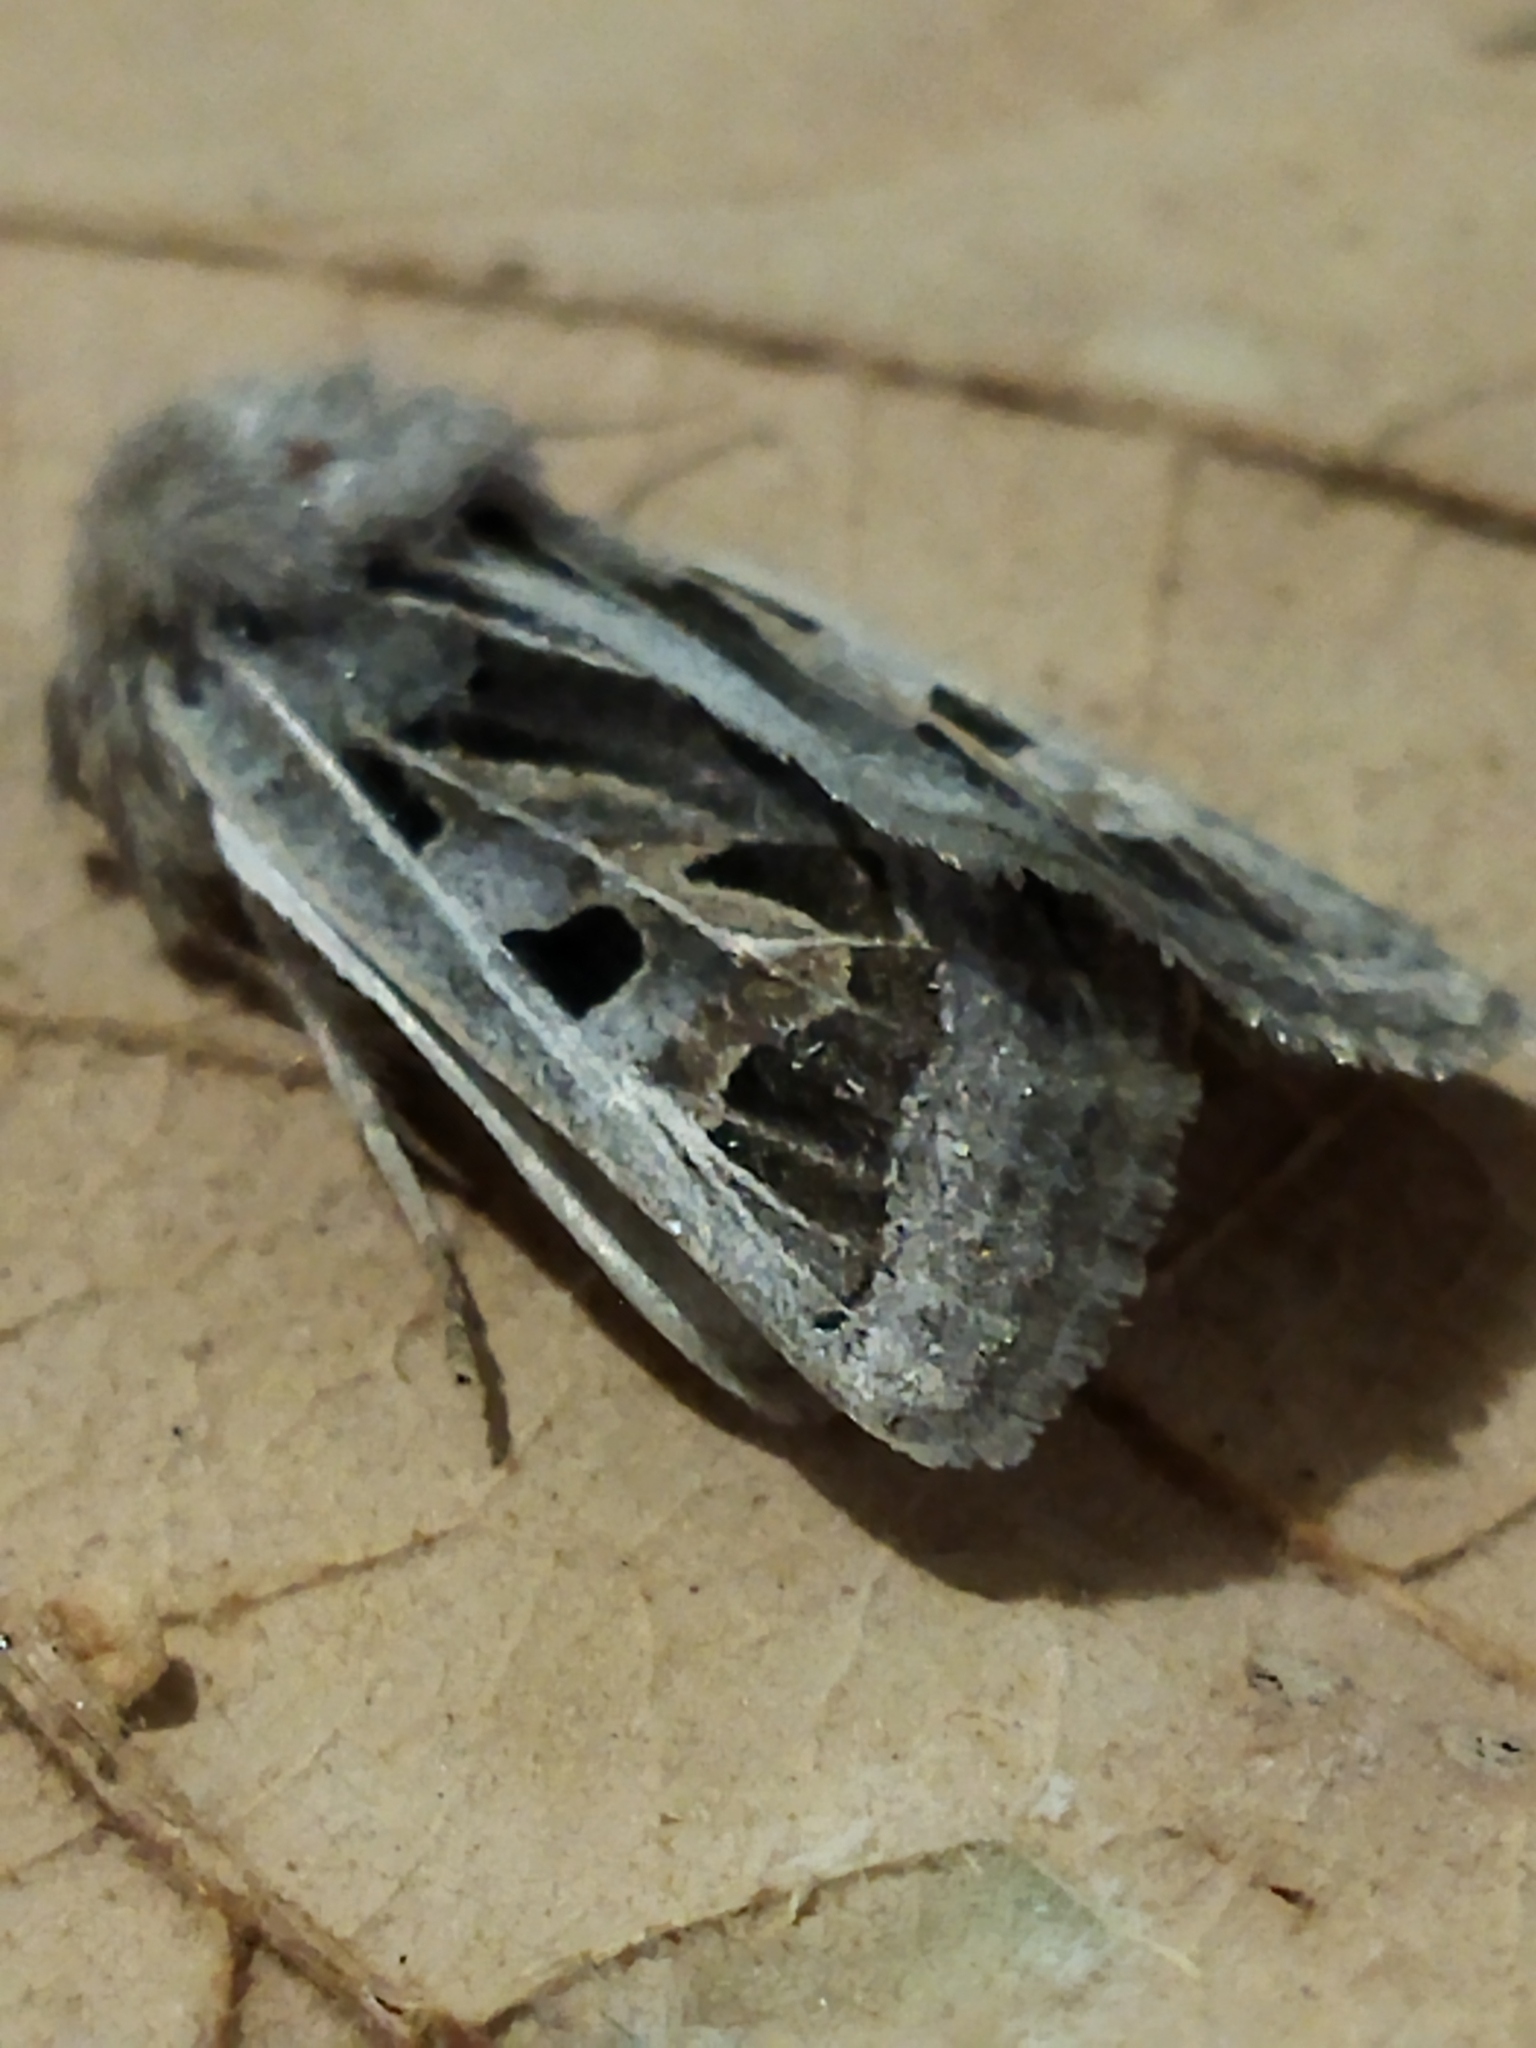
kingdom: Animalia
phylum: Arthropoda
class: Insecta
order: Lepidoptera
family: Noctuidae
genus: Episema
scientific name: Episema glaucina
